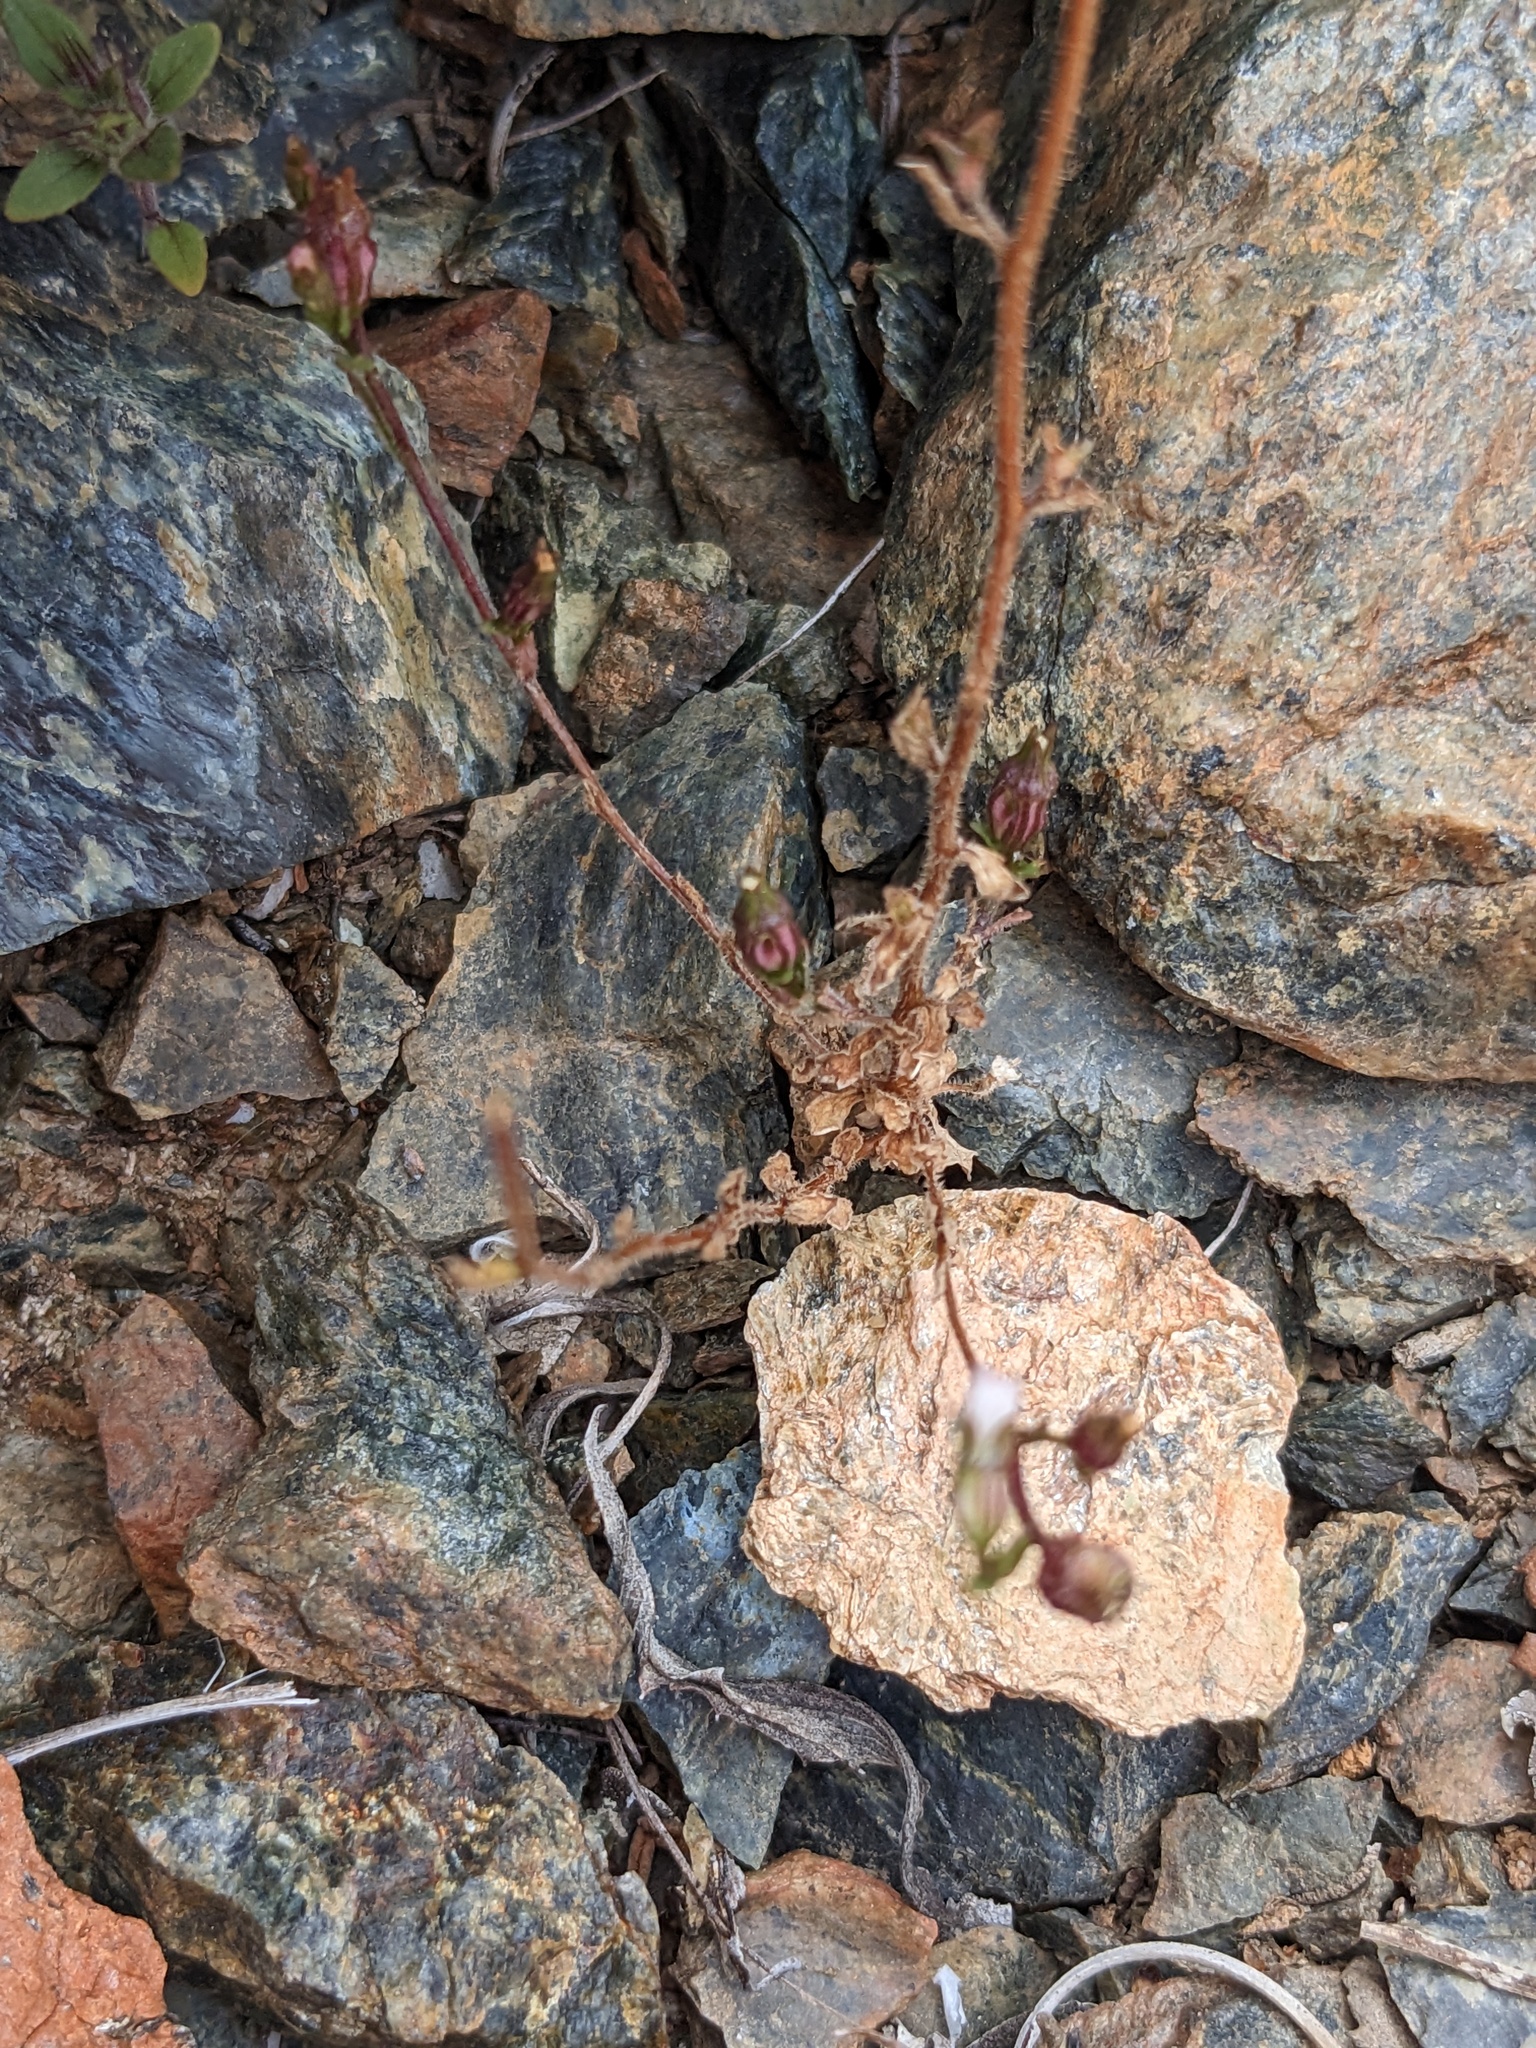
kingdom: Plantae
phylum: Tracheophyta
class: Magnoliopsida
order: Asterales
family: Campanulaceae
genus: Ravenella
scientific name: Ravenella griffinii
